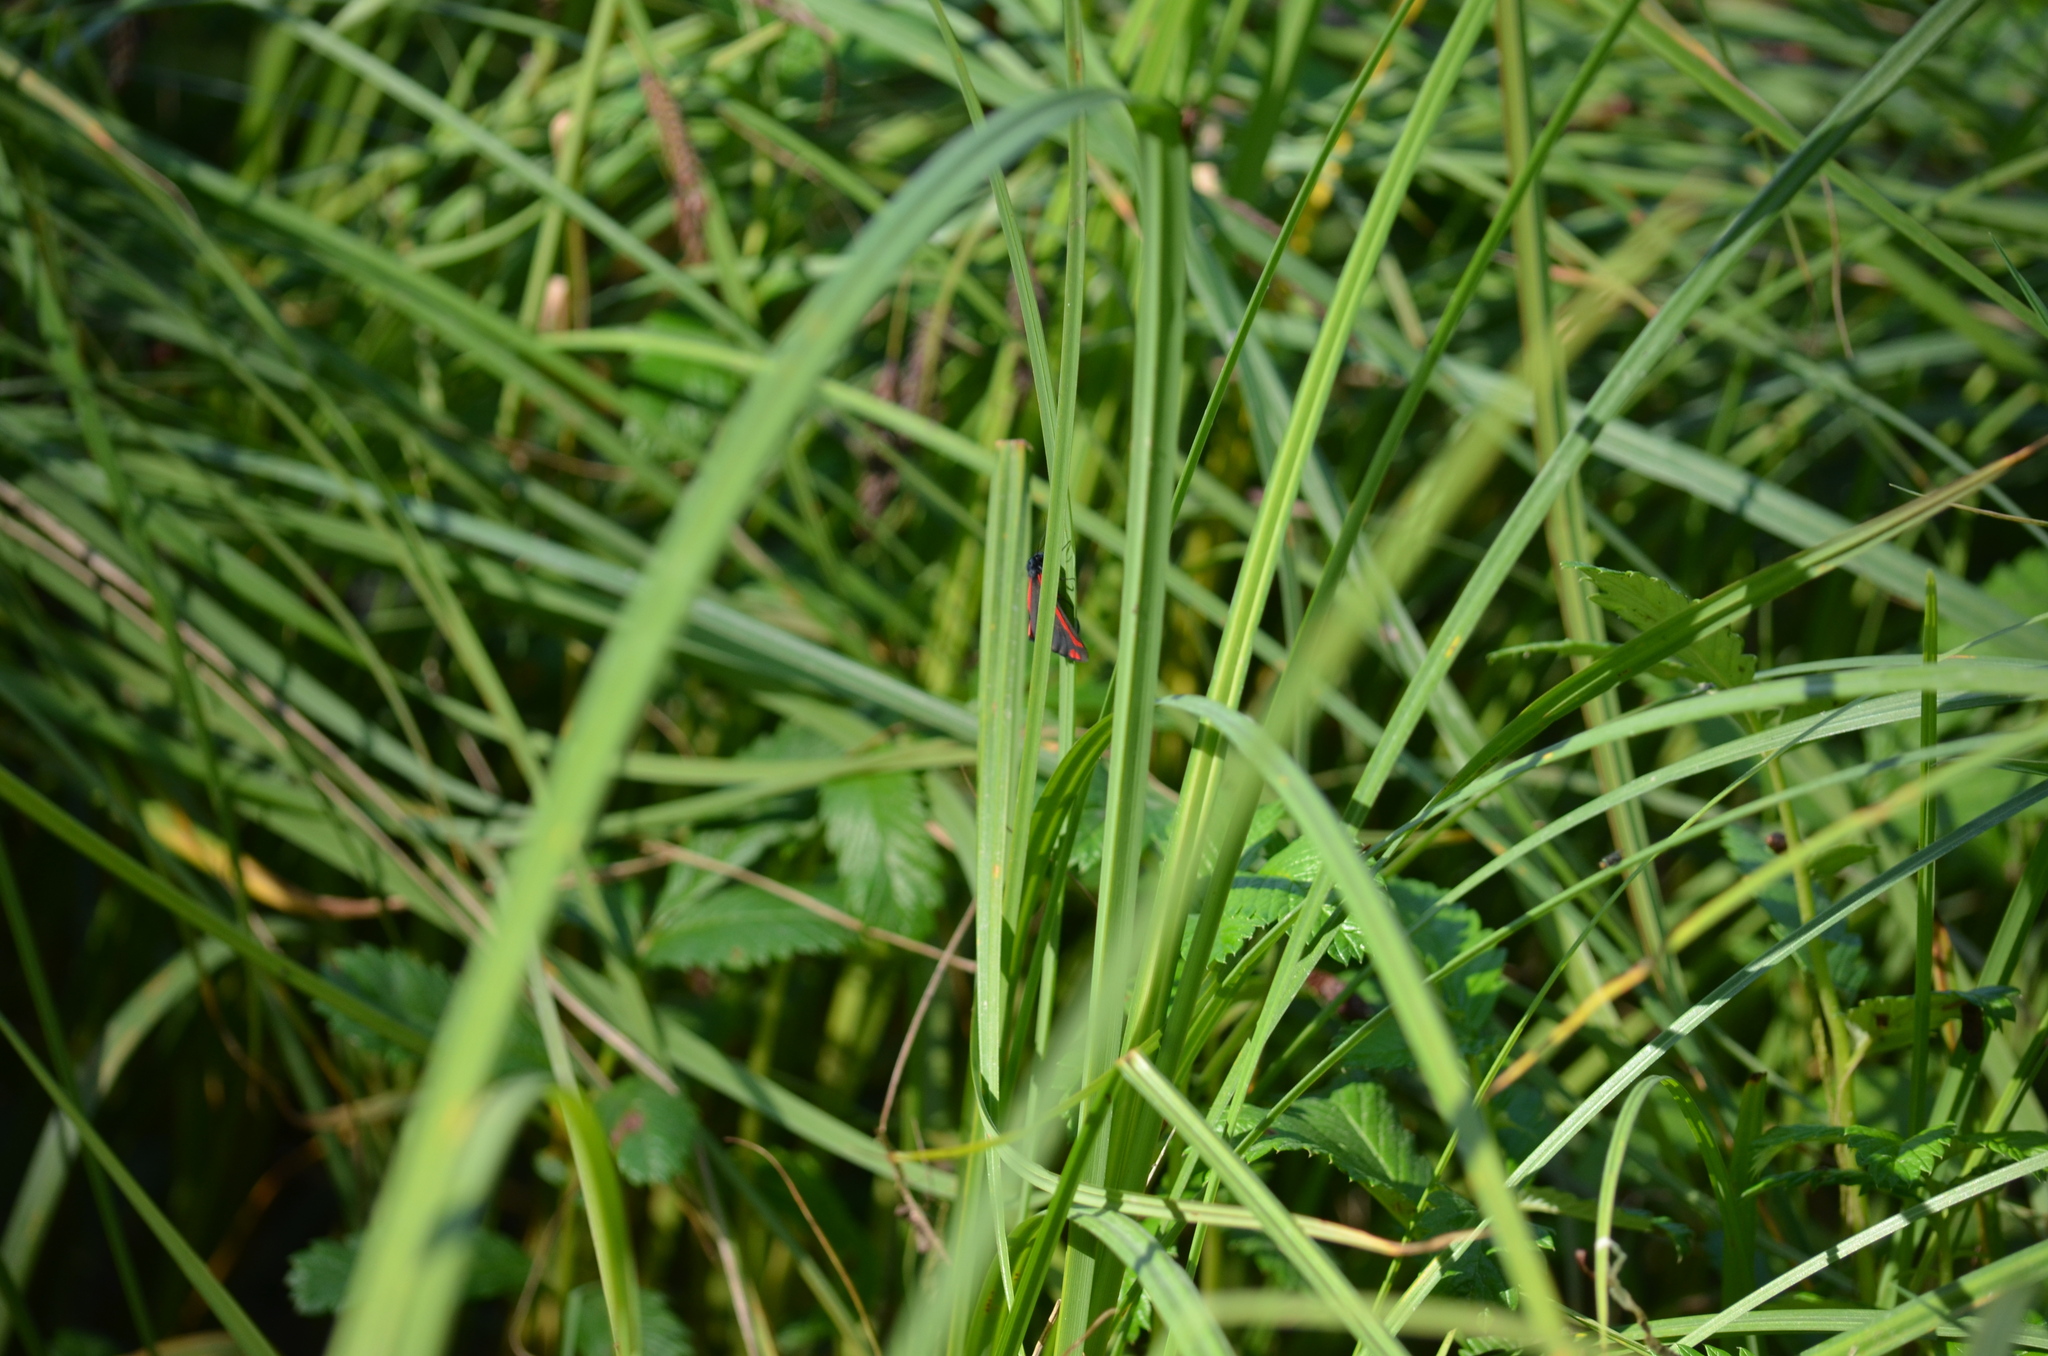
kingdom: Animalia
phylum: Arthropoda
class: Insecta
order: Lepidoptera
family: Erebidae
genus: Tyria
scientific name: Tyria jacobaeae
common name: Cinnabar
